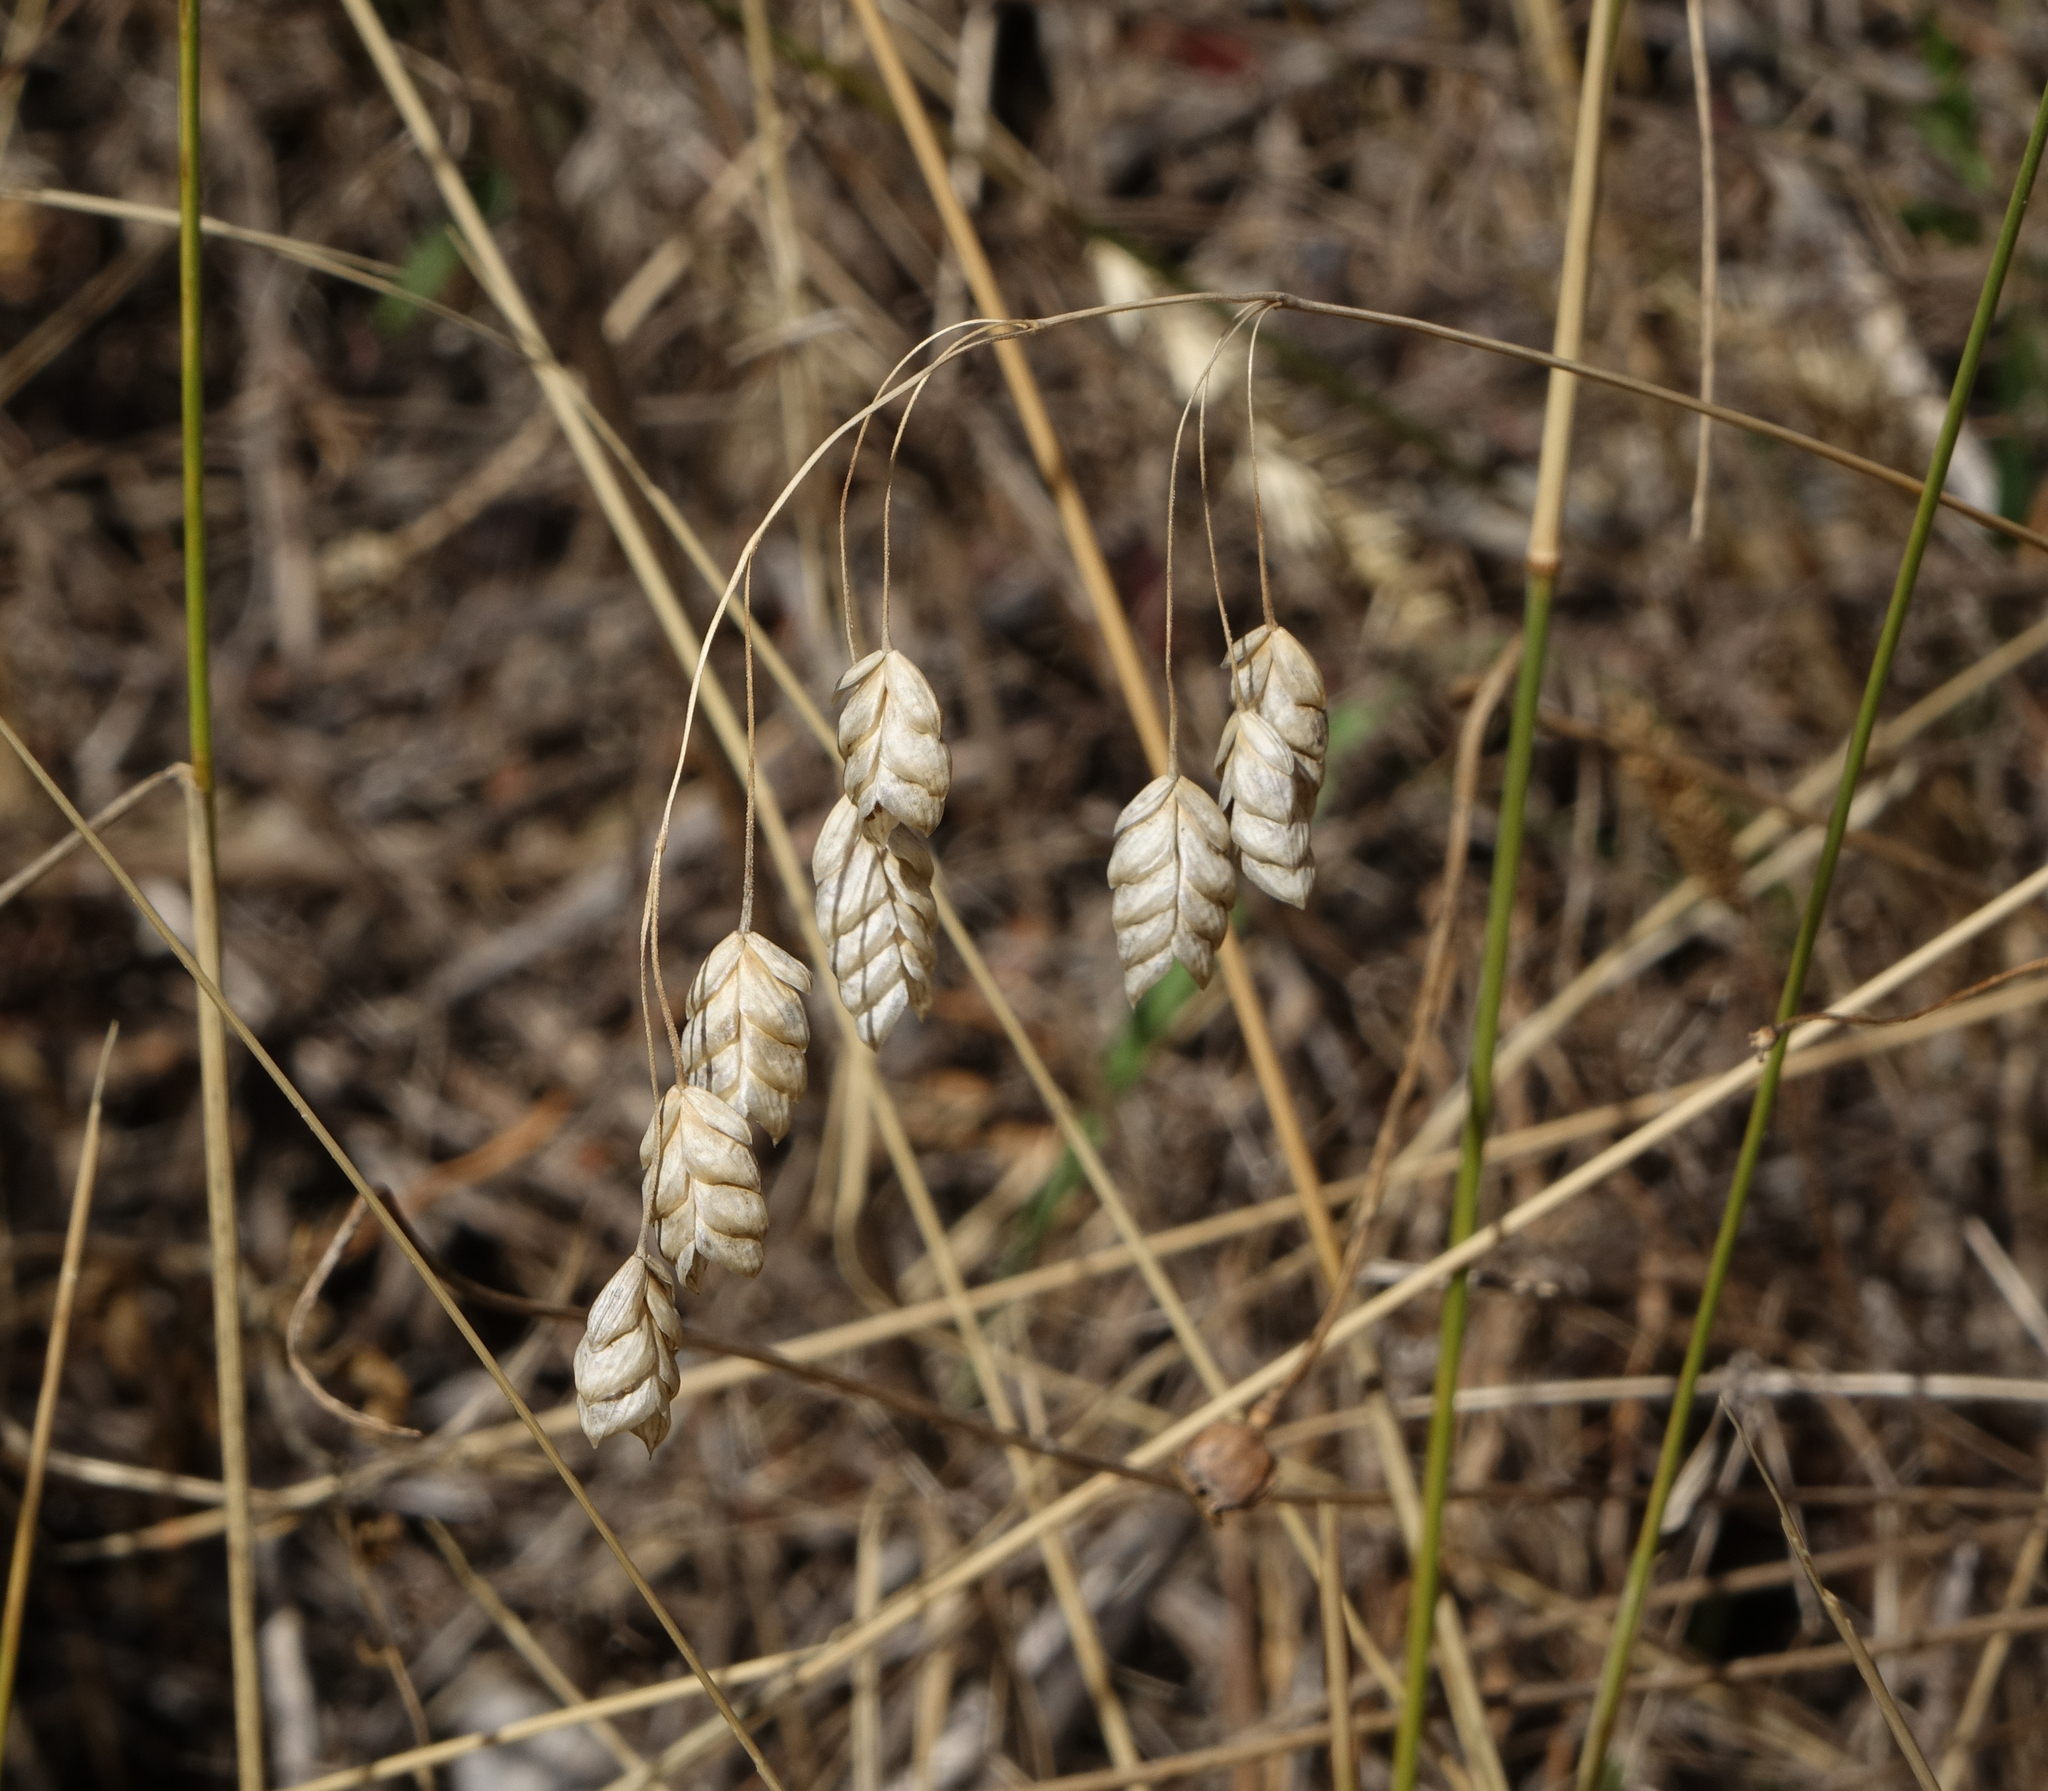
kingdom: Plantae
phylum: Tracheophyta
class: Liliopsida
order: Poales
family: Poaceae
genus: Bromus
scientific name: Bromus briziformis
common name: Rattlesnake brome
